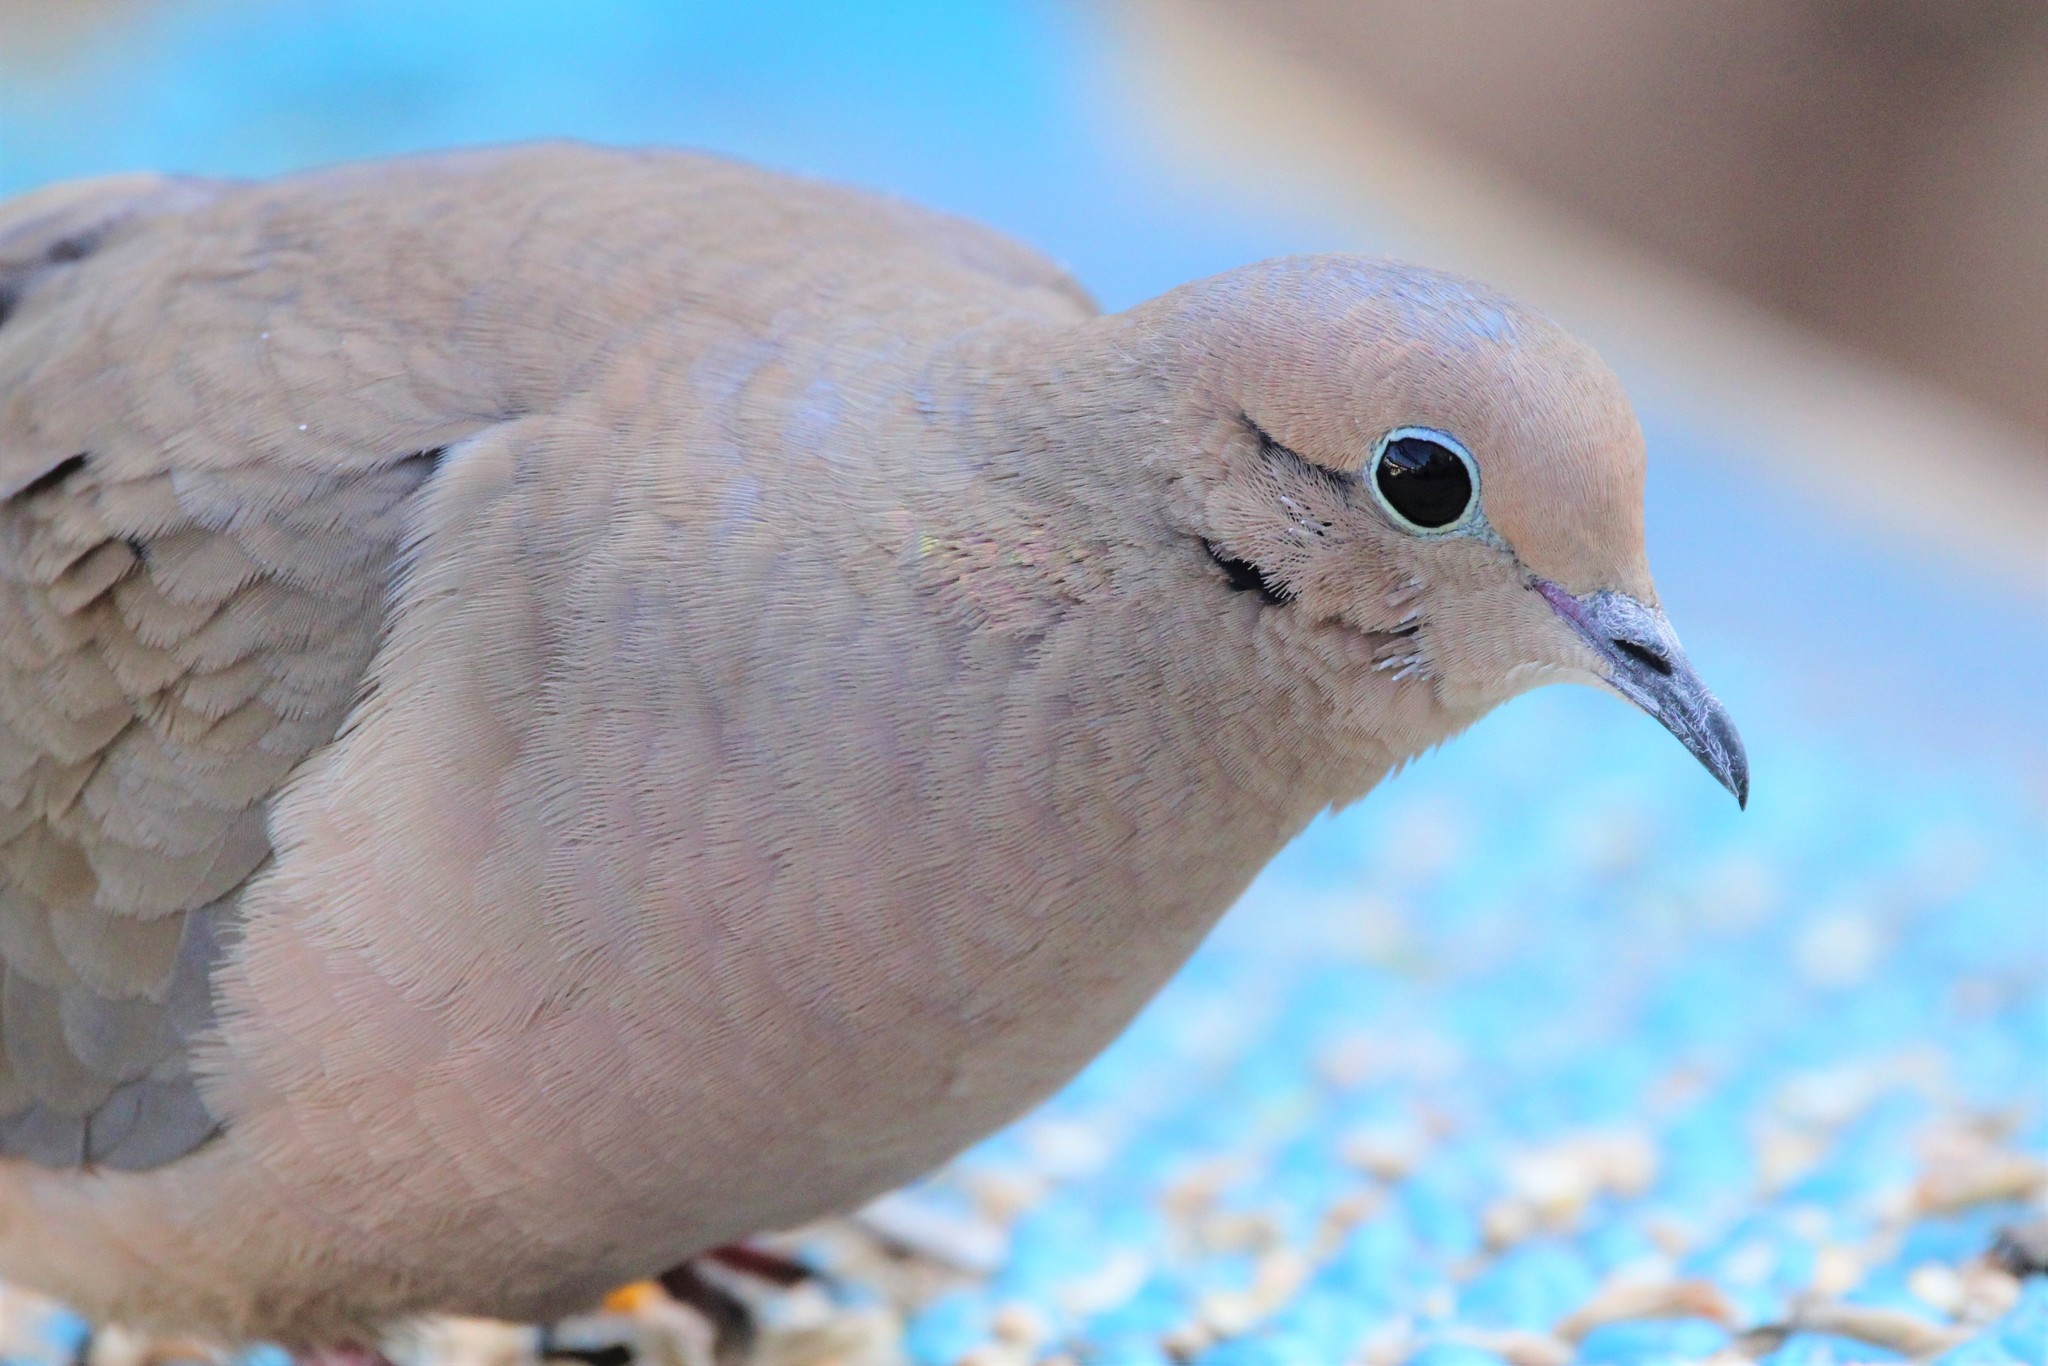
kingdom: Animalia
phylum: Chordata
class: Aves
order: Columbiformes
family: Columbidae
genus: Zenaida
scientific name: Zenaida macroura
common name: Mourning dove
